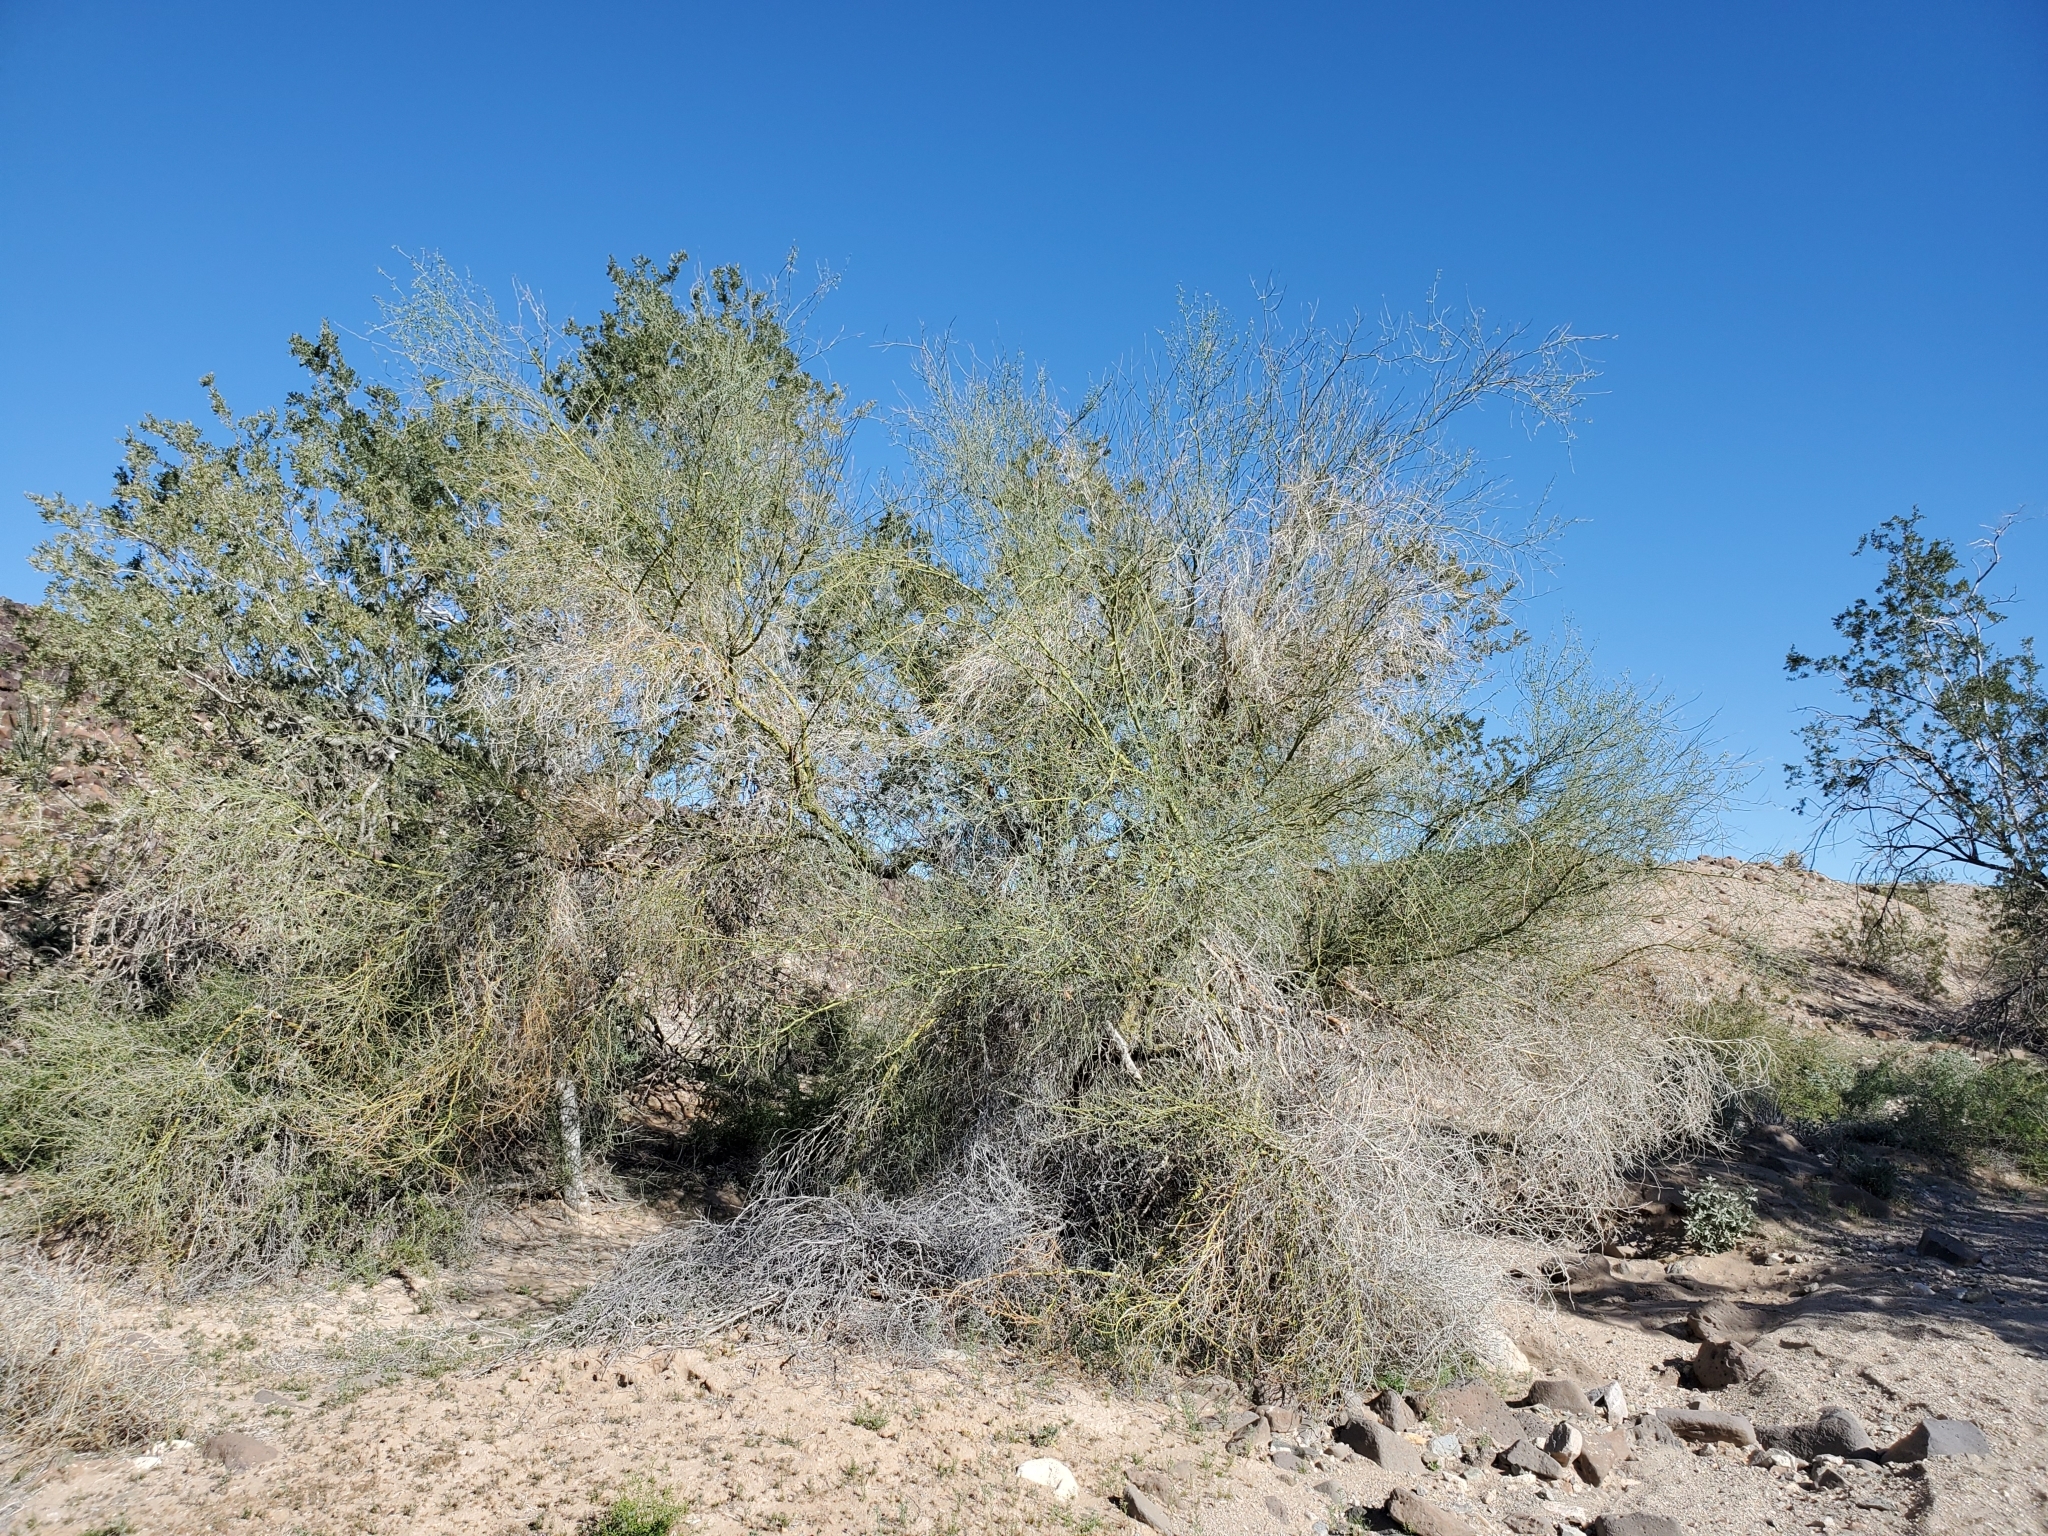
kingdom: Plantae
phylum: Tracheophyta
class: Magnoliopsida
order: Fabales
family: Fabaceae
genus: Parkinsonia
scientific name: Parkinsonia florida
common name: Blue paloverde
